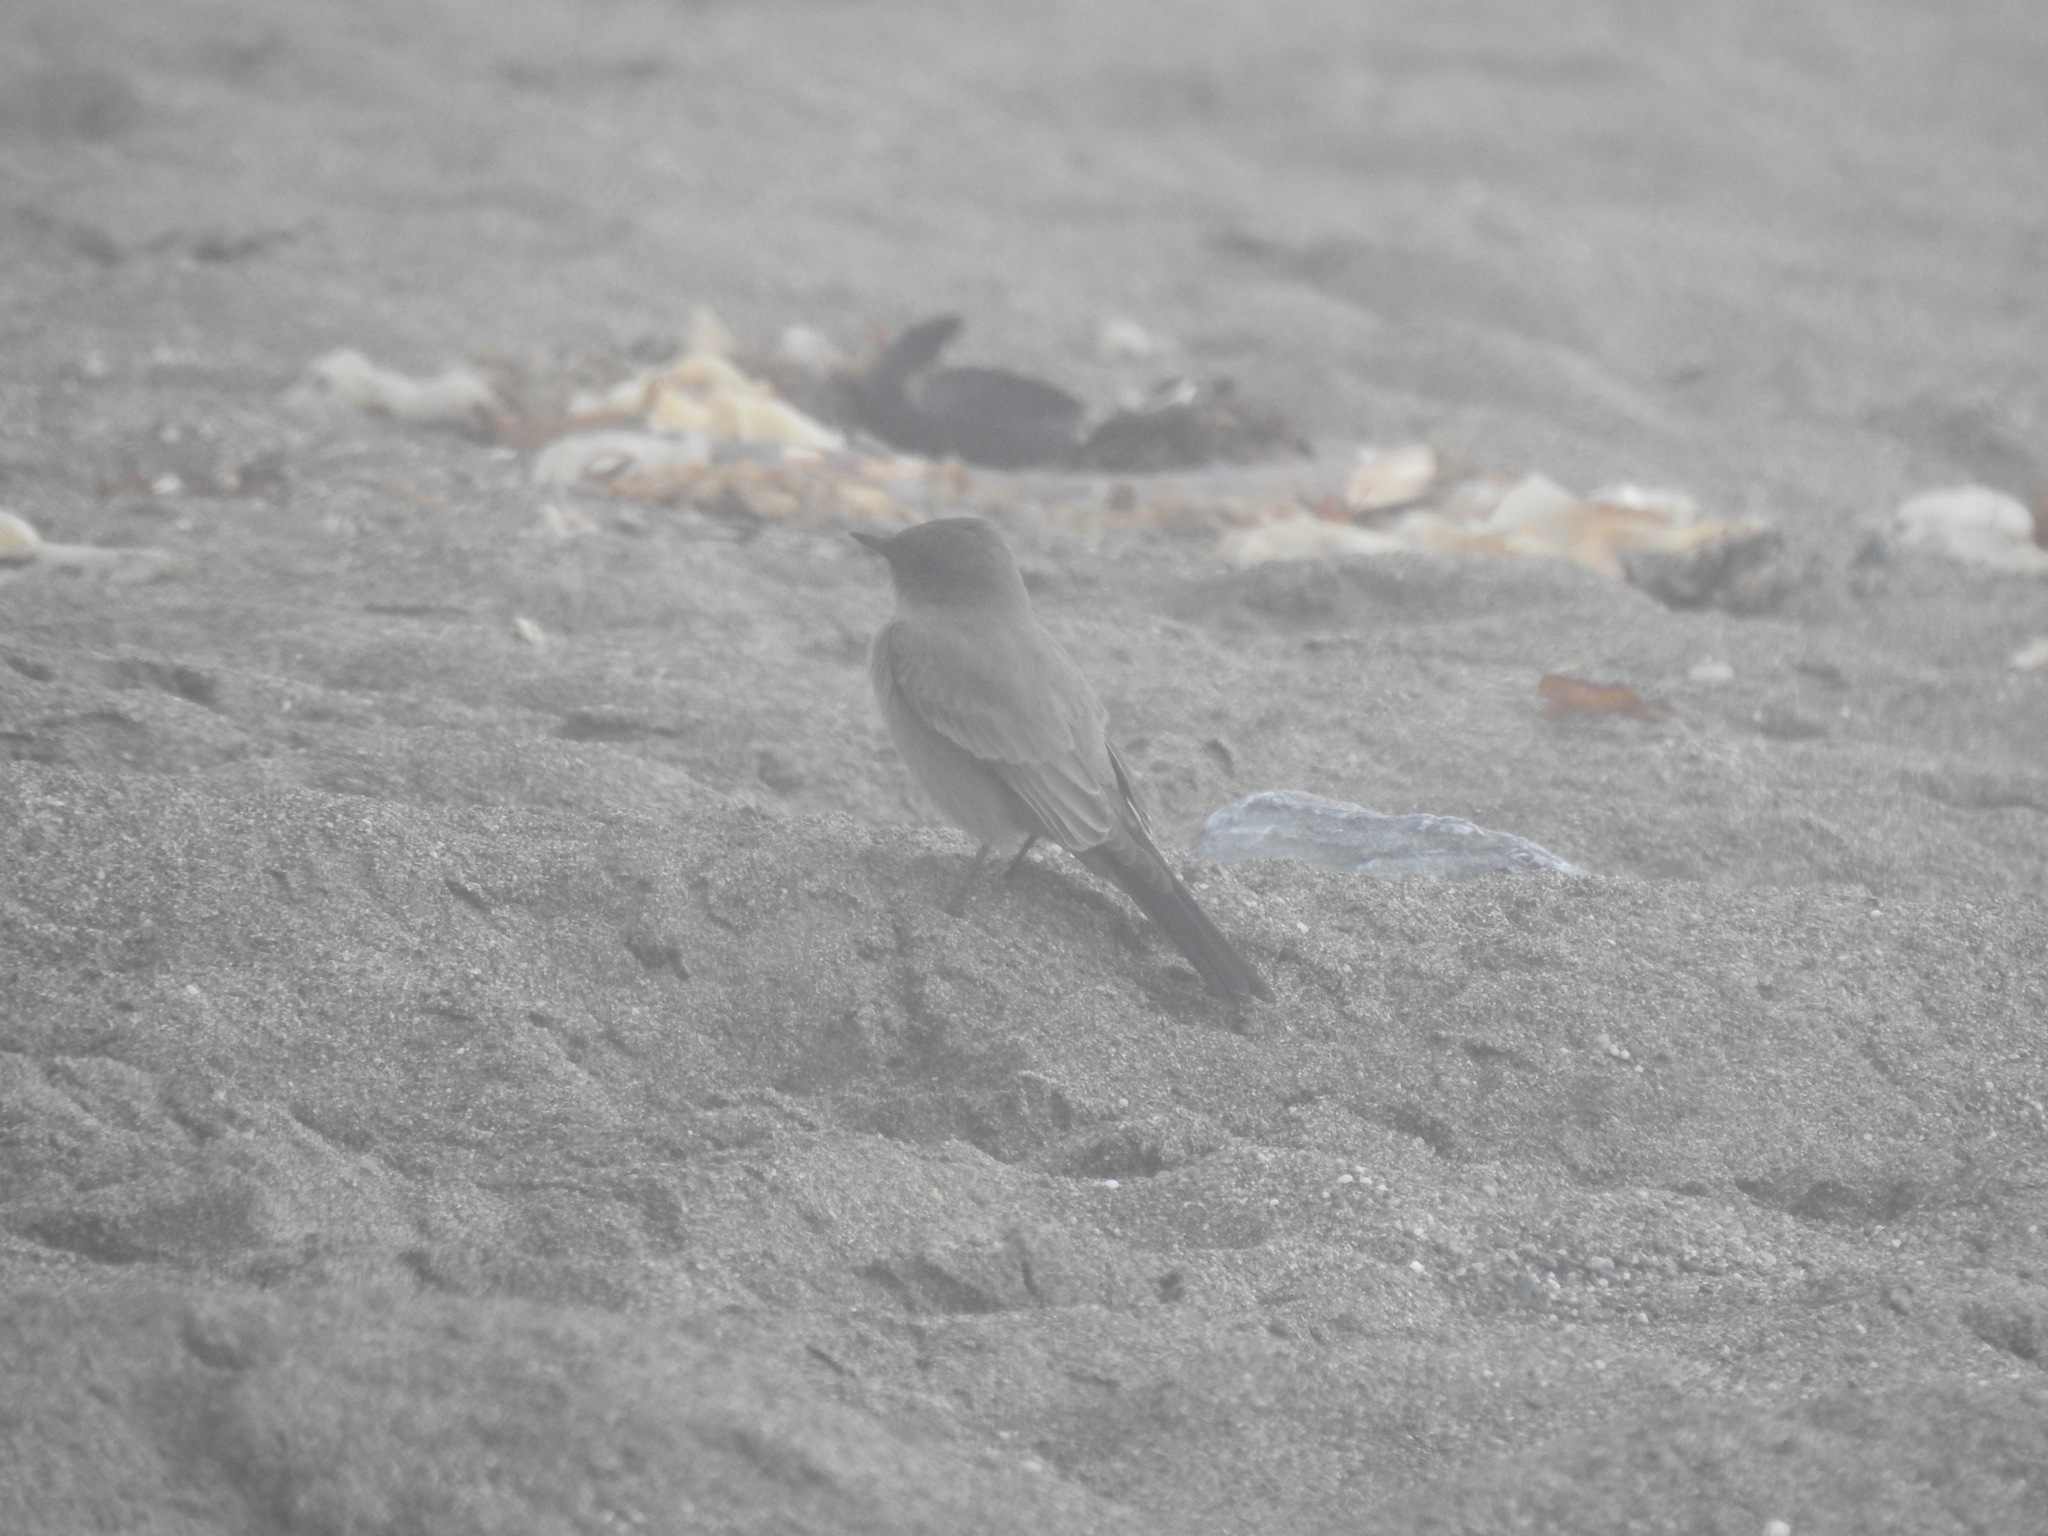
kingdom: Animalia
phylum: Chordata
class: Aves
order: Passeriformes
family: Tyrannidae
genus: Sayornis
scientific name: Sayornis saya
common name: Say's phoebe
